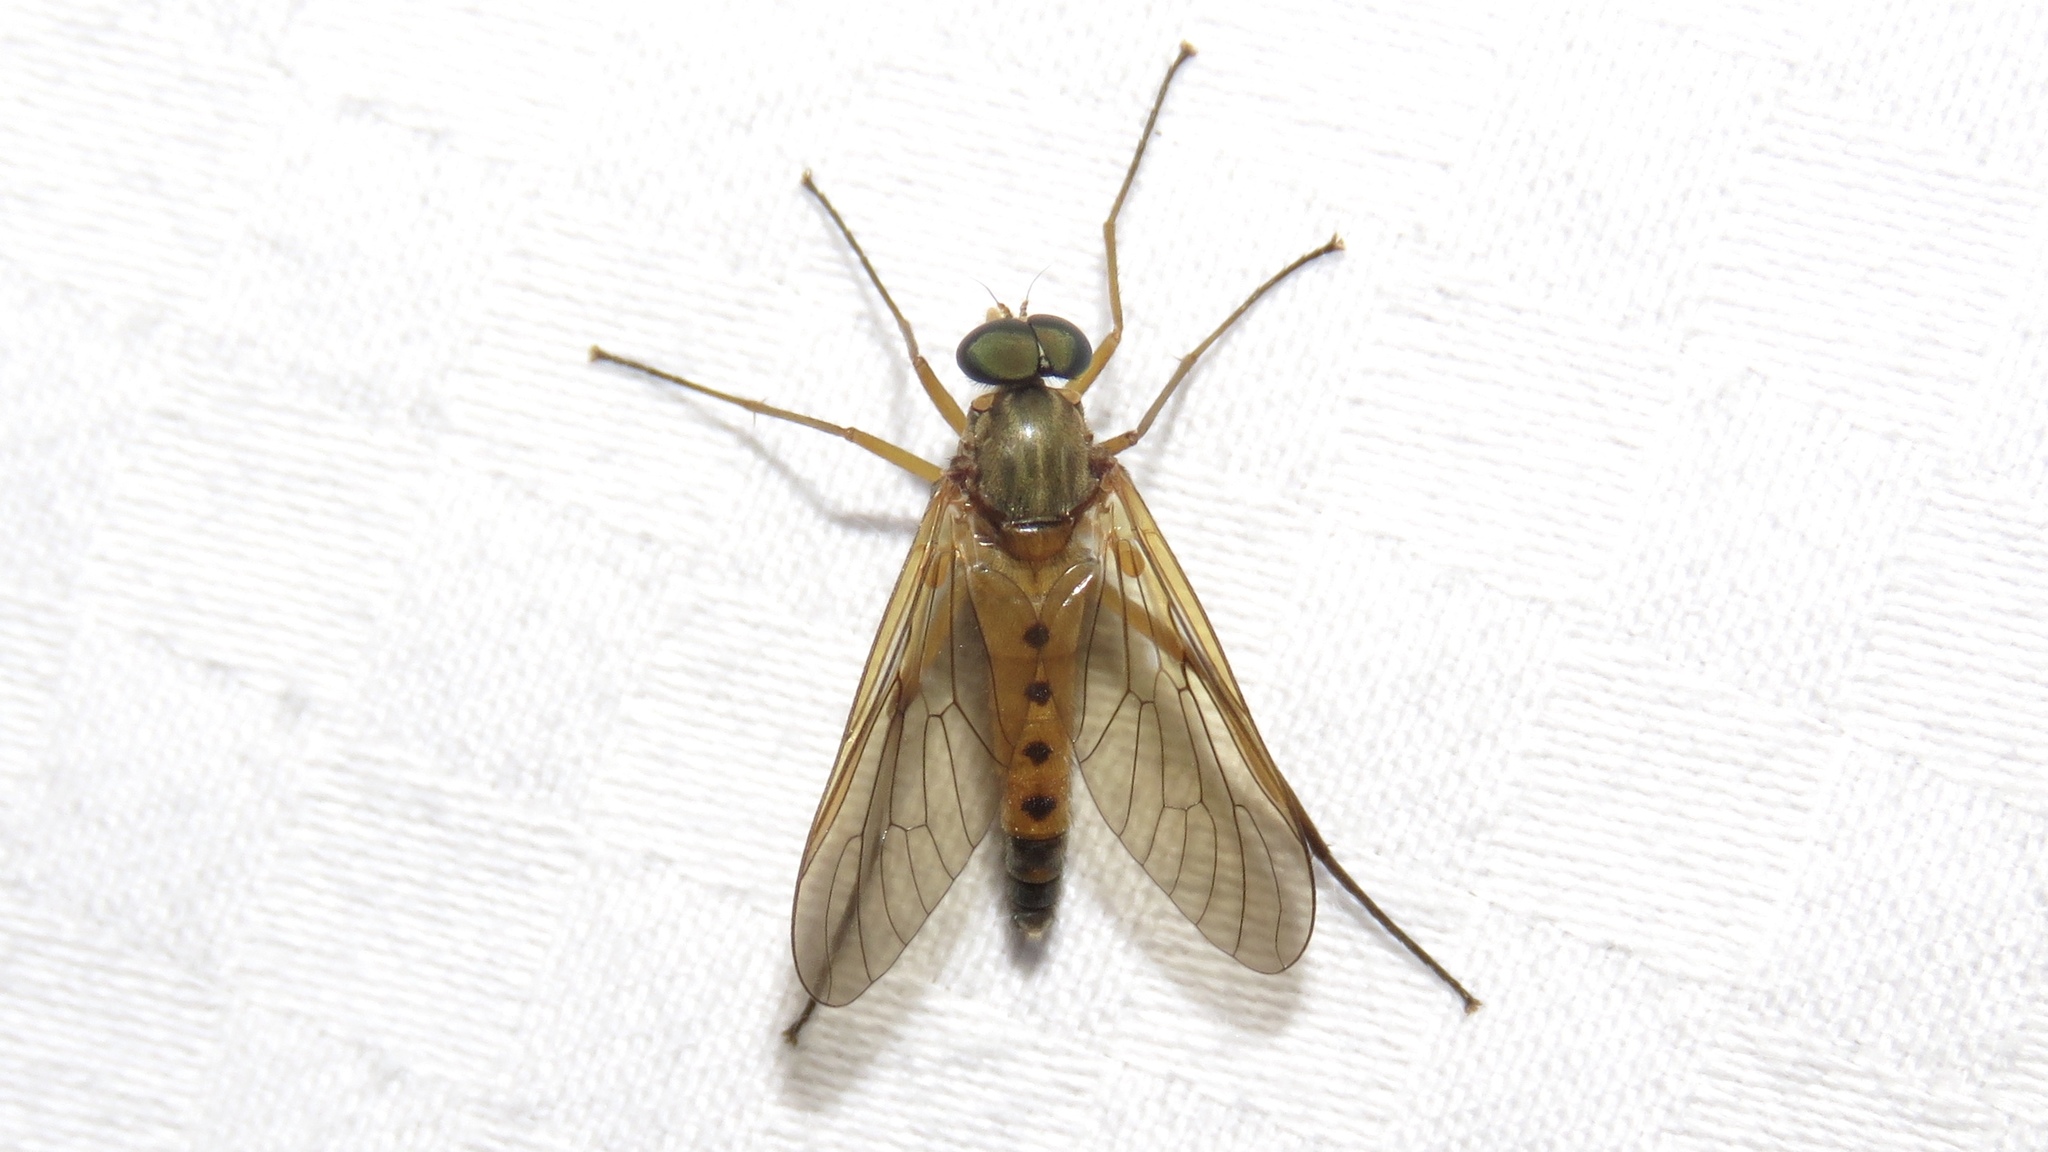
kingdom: Animalia
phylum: Arthropoda
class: Insecta
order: Diptera
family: Rhagionidae
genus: Rhagio
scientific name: Rhagio tringaria
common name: Marsh snipefly
